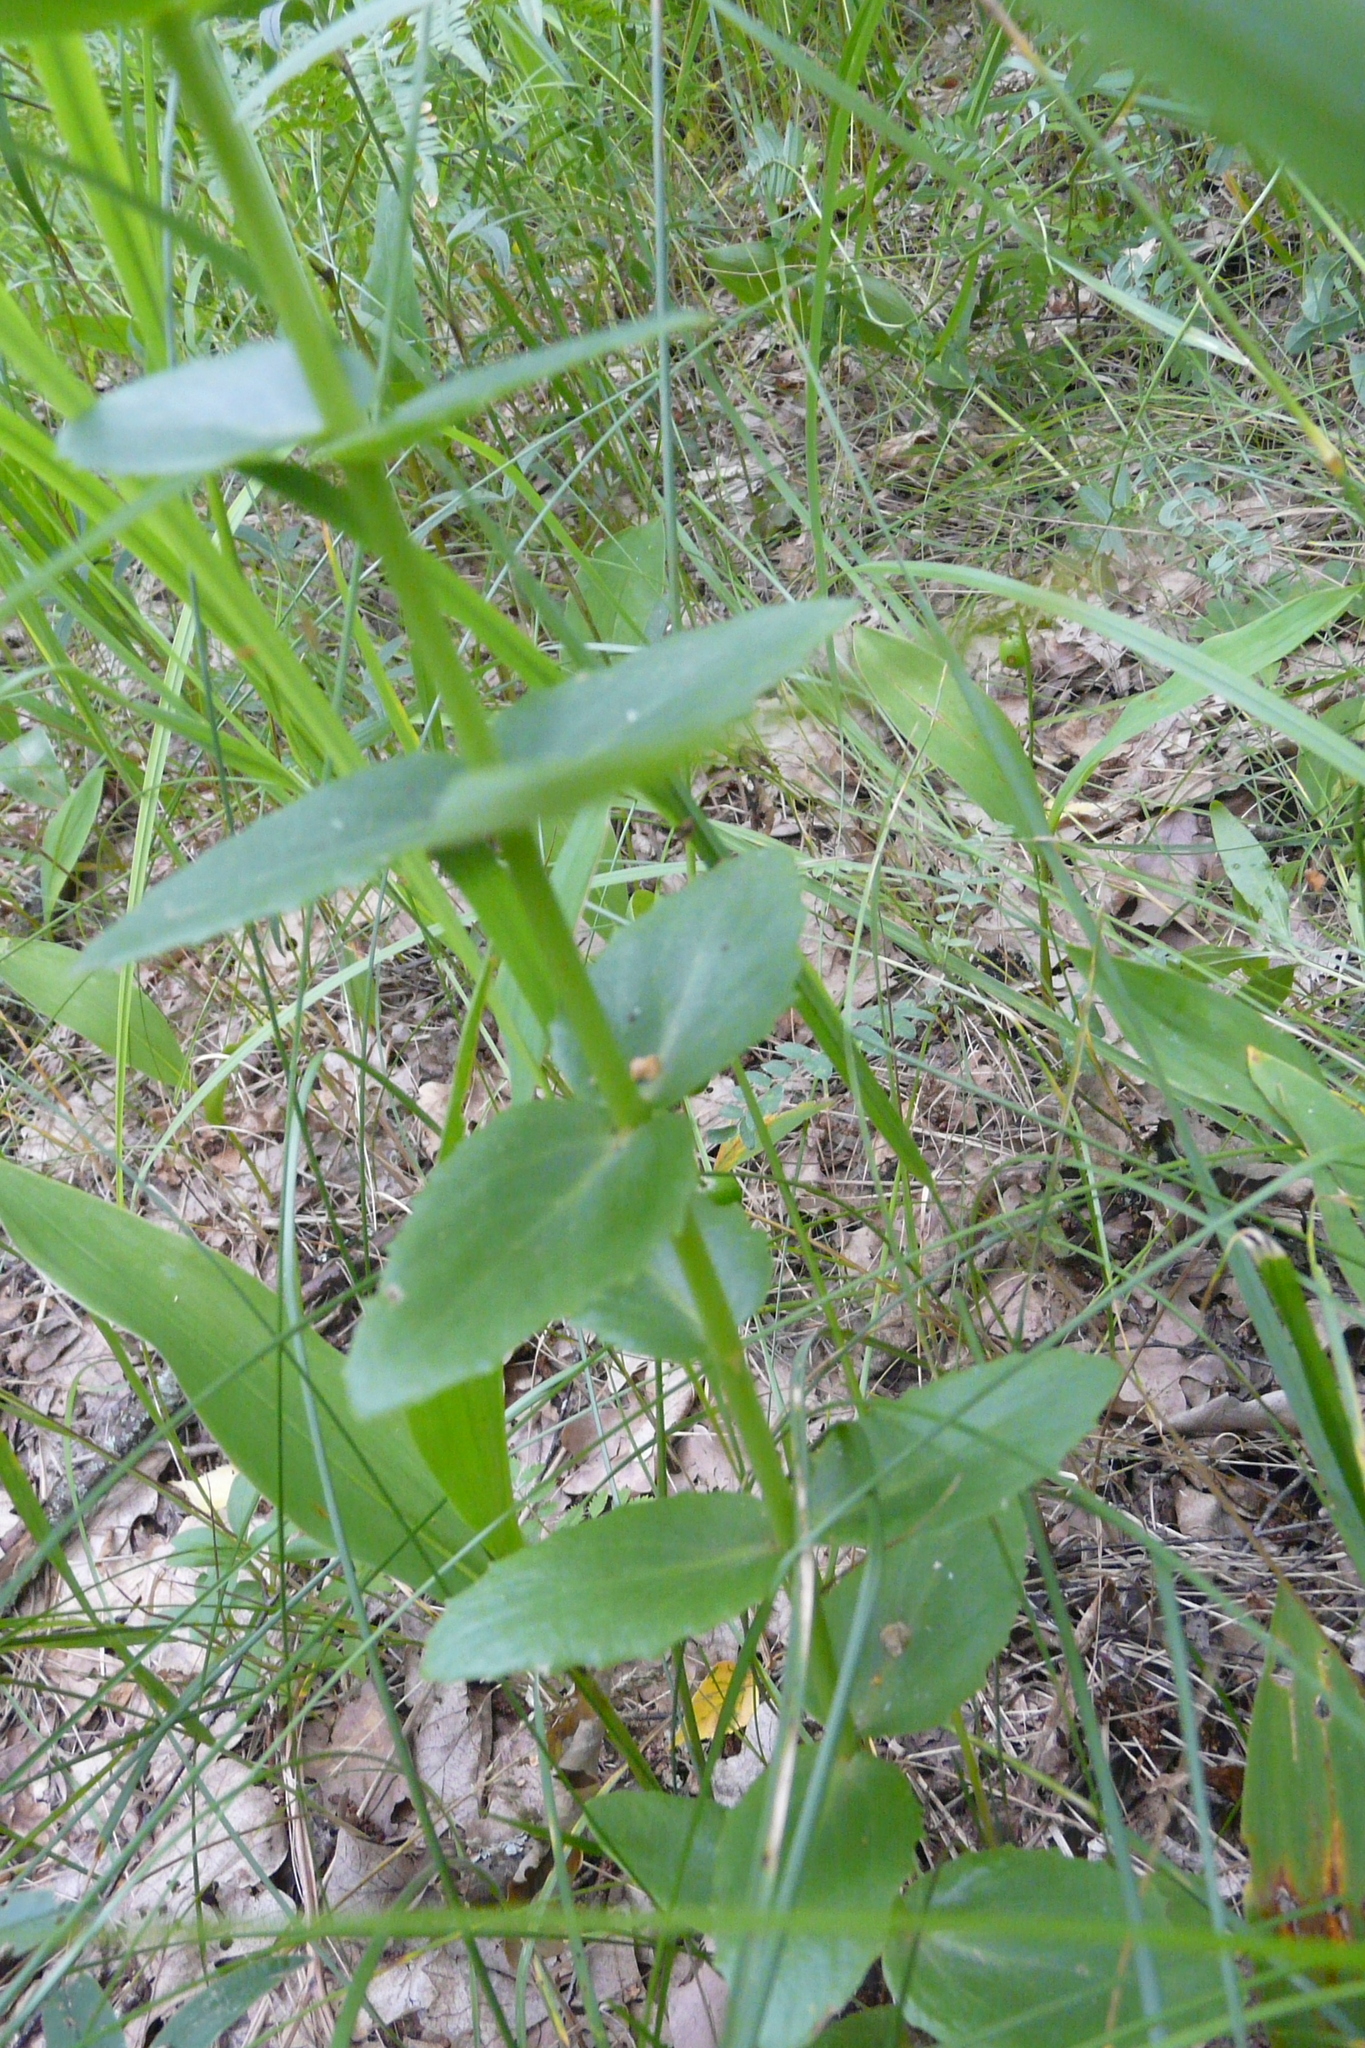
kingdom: Plantae
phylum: Tracheophyta
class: Magnoliopsida
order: Saxifragales
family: Crassulaceae
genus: Hylotelephium
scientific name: Hylotelephium maximum
